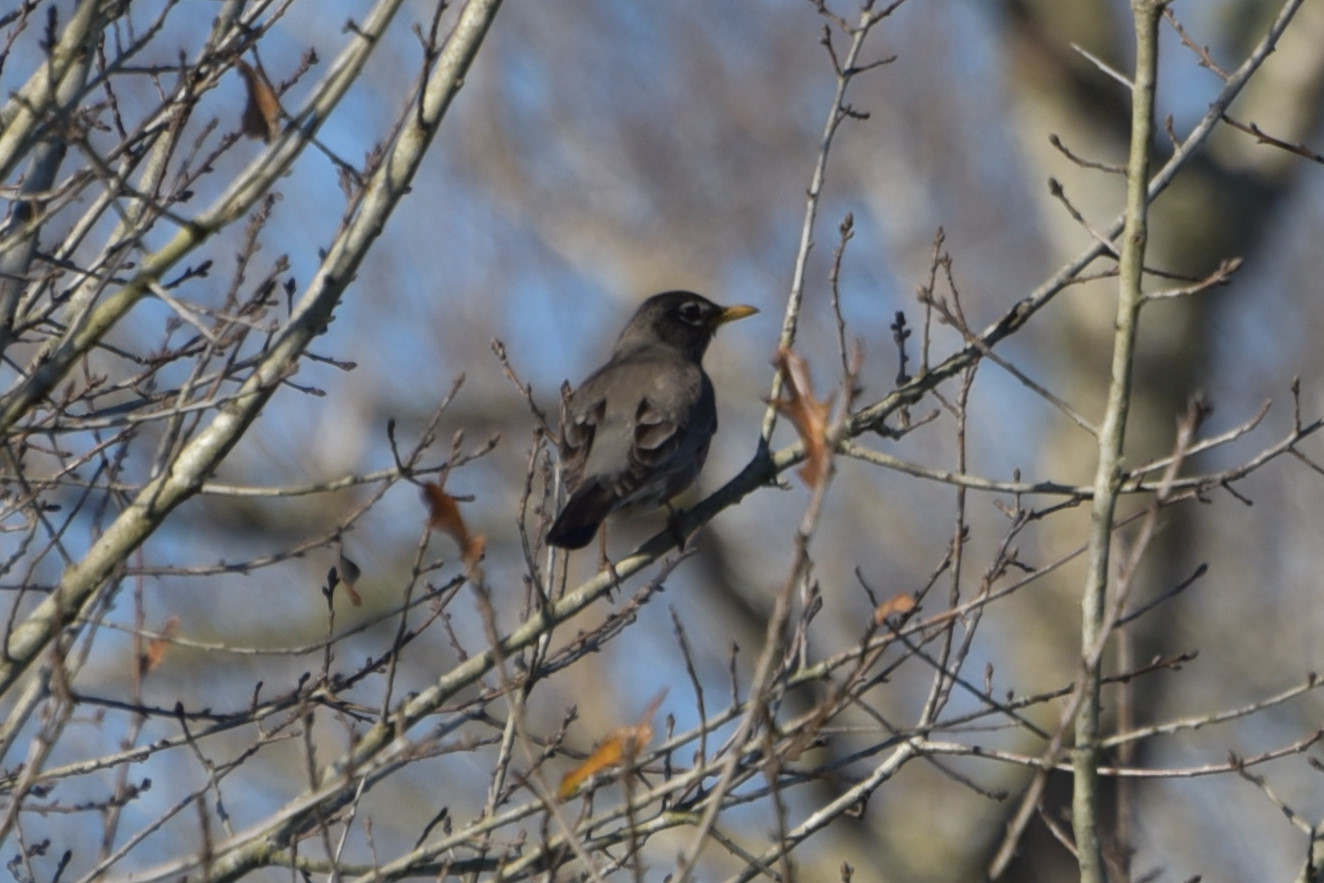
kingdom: Animalia
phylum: Chordata
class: Aves
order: Passeriformes
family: Turdidae
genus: Turdus
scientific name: Turdus migratorius
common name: American robin
